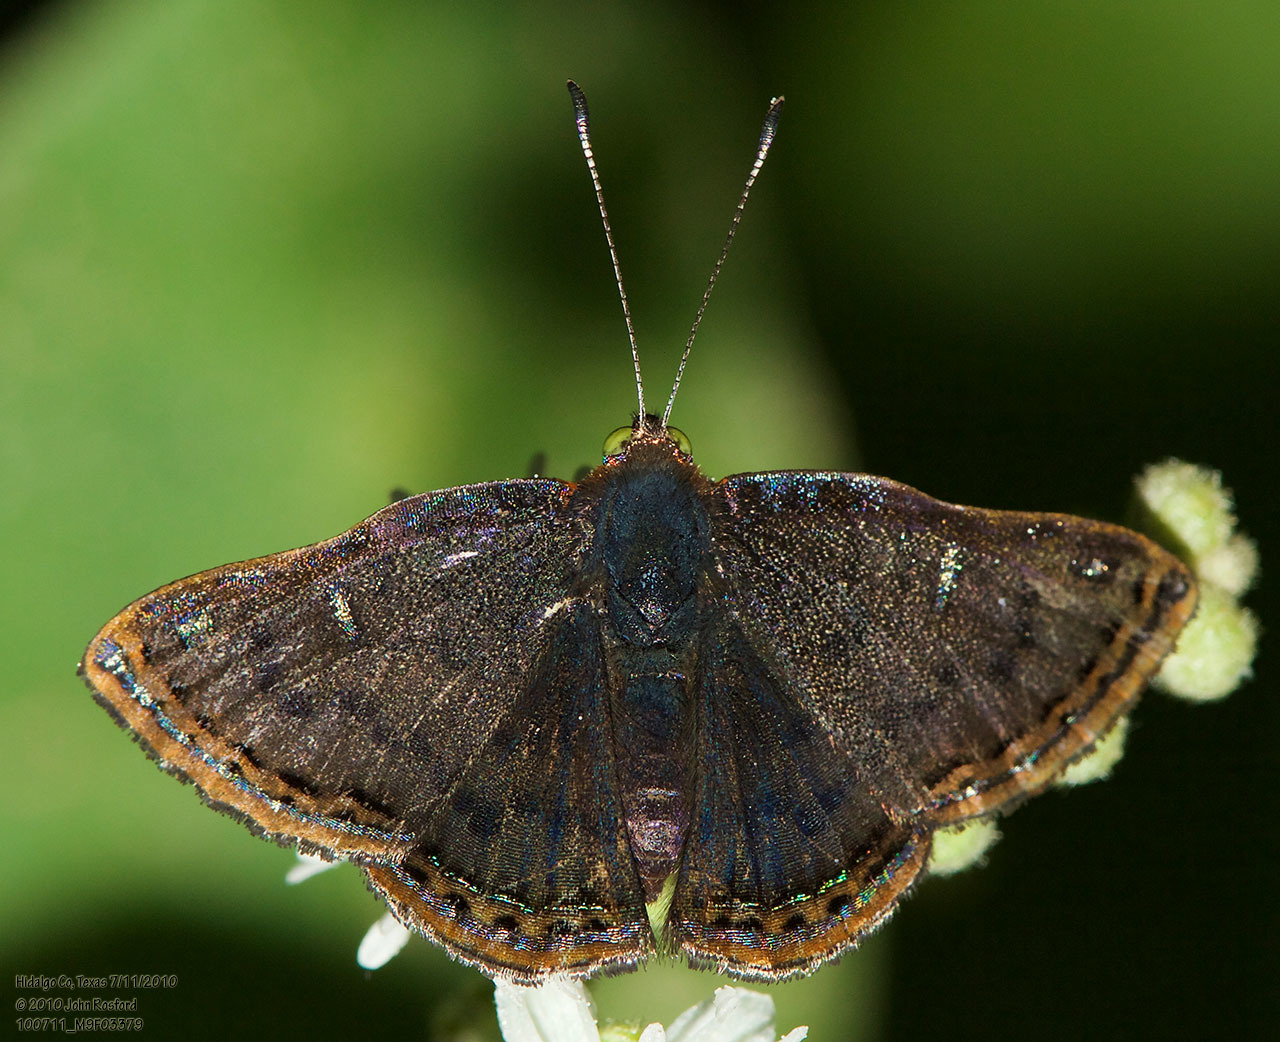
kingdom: Animalia
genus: Caria
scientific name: Caria ino
